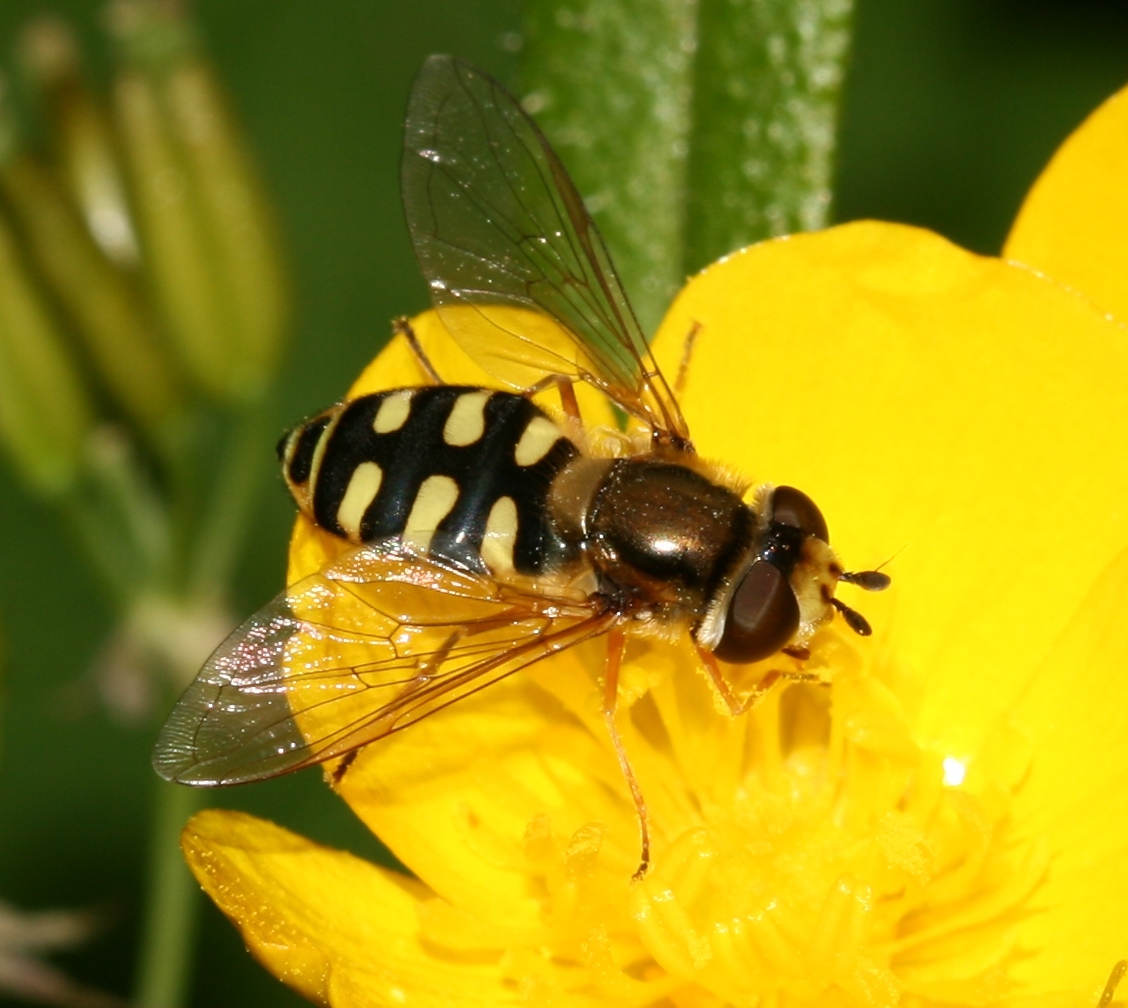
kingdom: Animalia
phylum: Arthropoda
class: Insecta
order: Diptera
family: Syrphidae
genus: Eupeodes
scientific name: Eupeodes corollae
